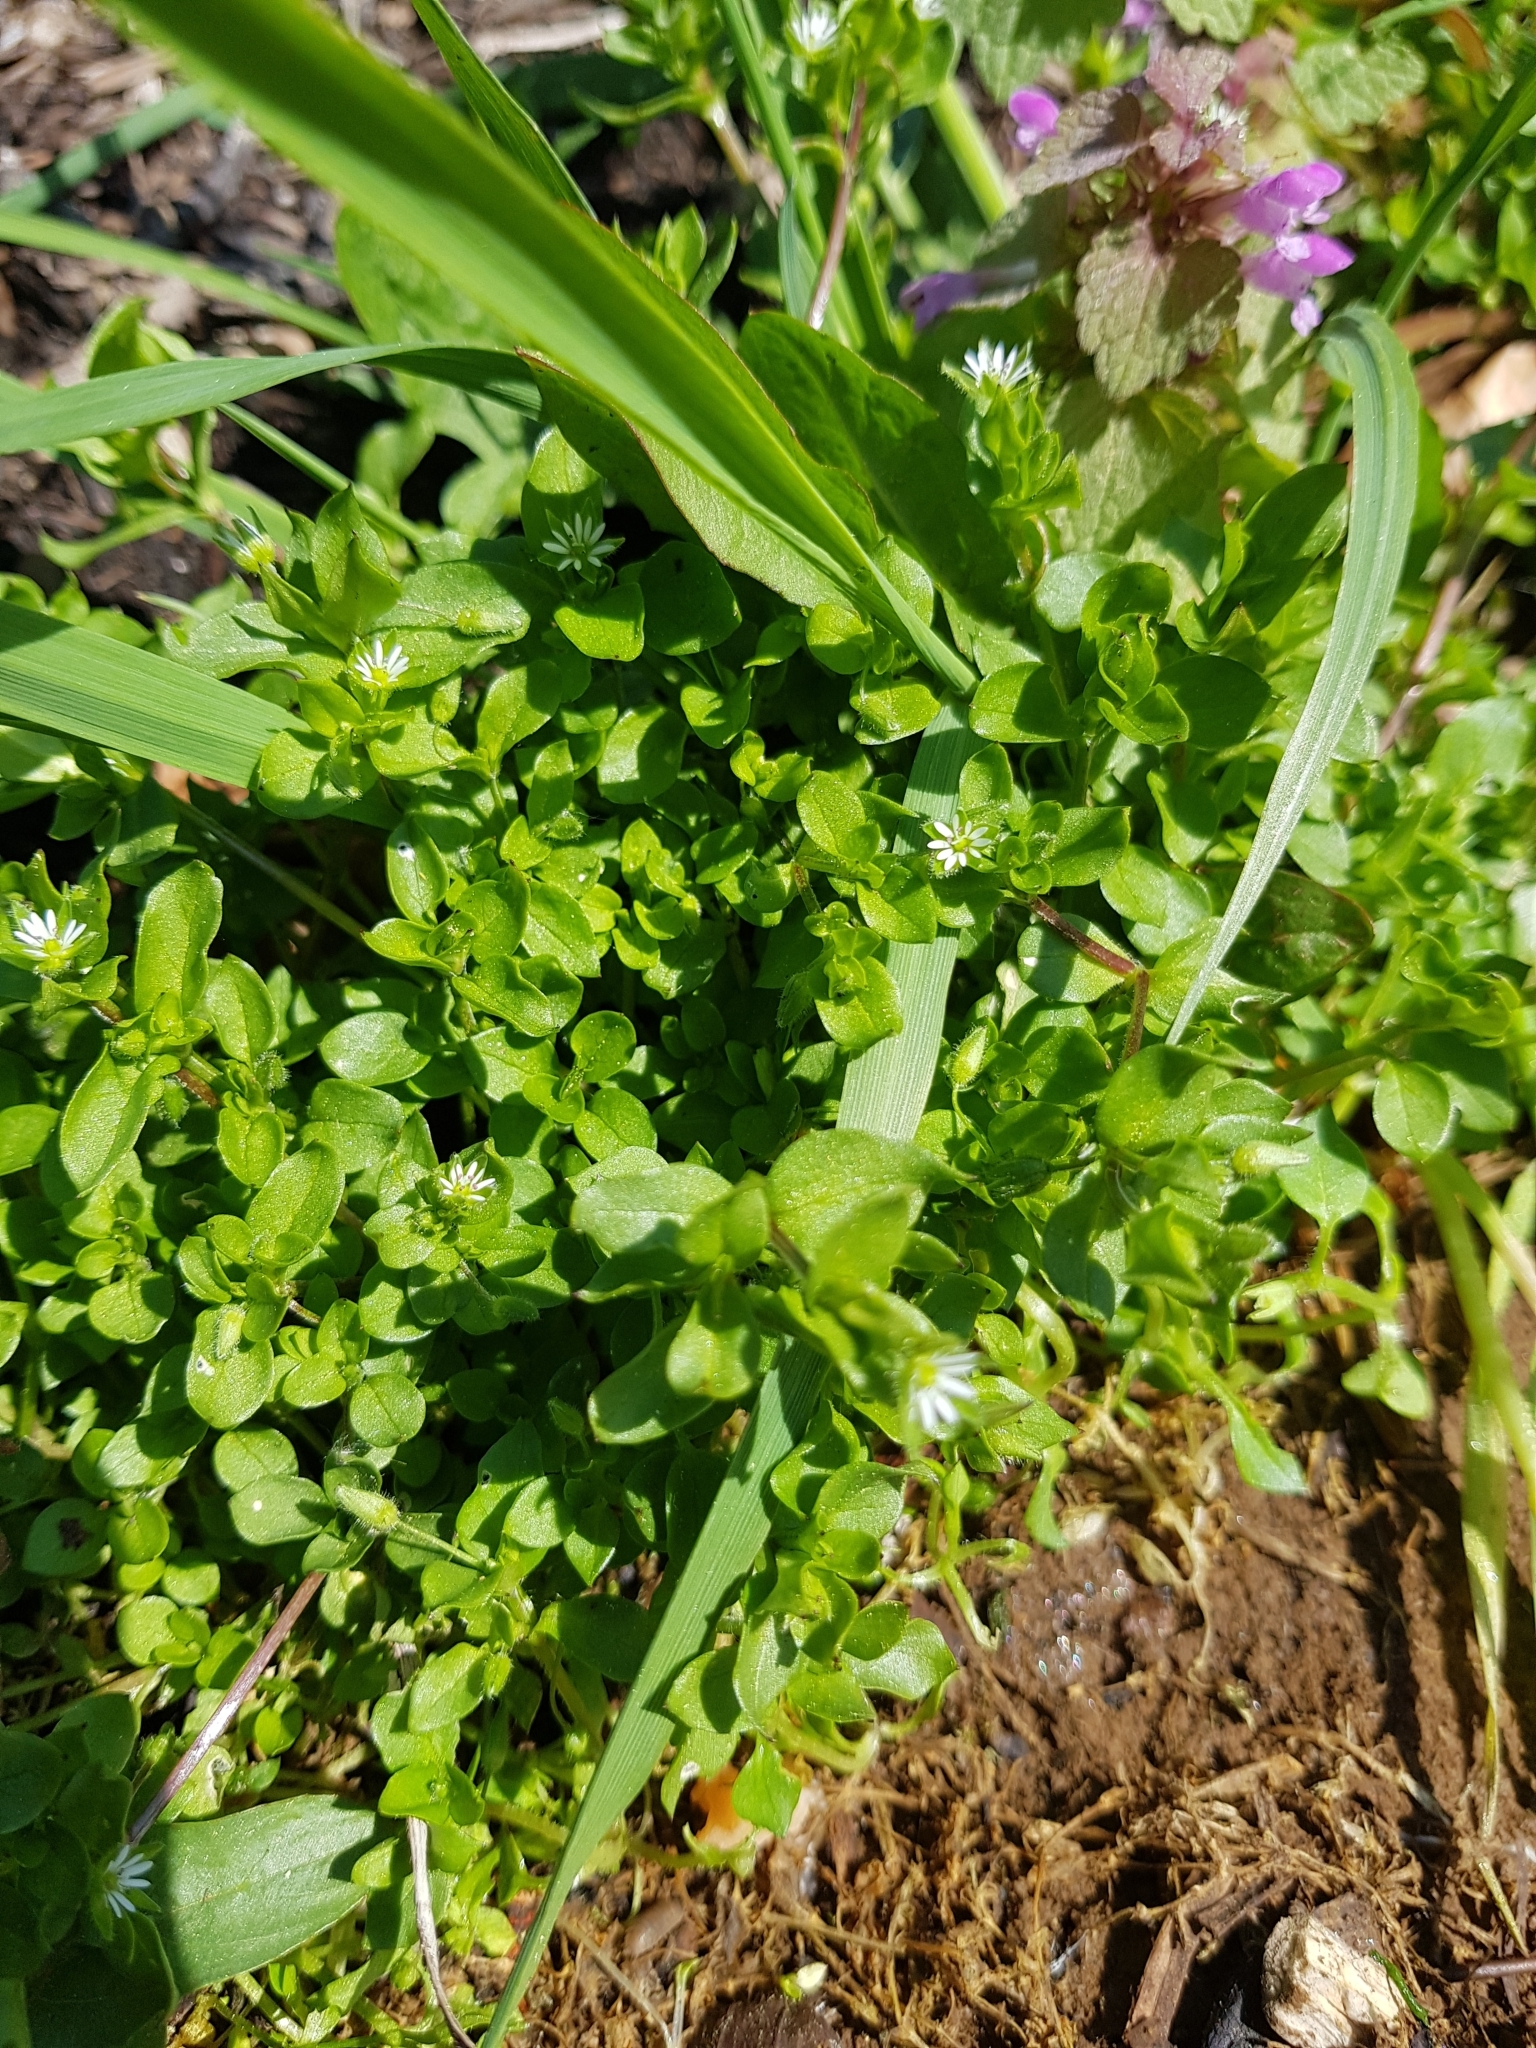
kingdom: Plantae
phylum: Tracheophyta
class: Magnoliopsida
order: Caryophyllales
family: Caryophyllaceae
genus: Stellaria
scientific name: Stellaria media
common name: Common chickweed
